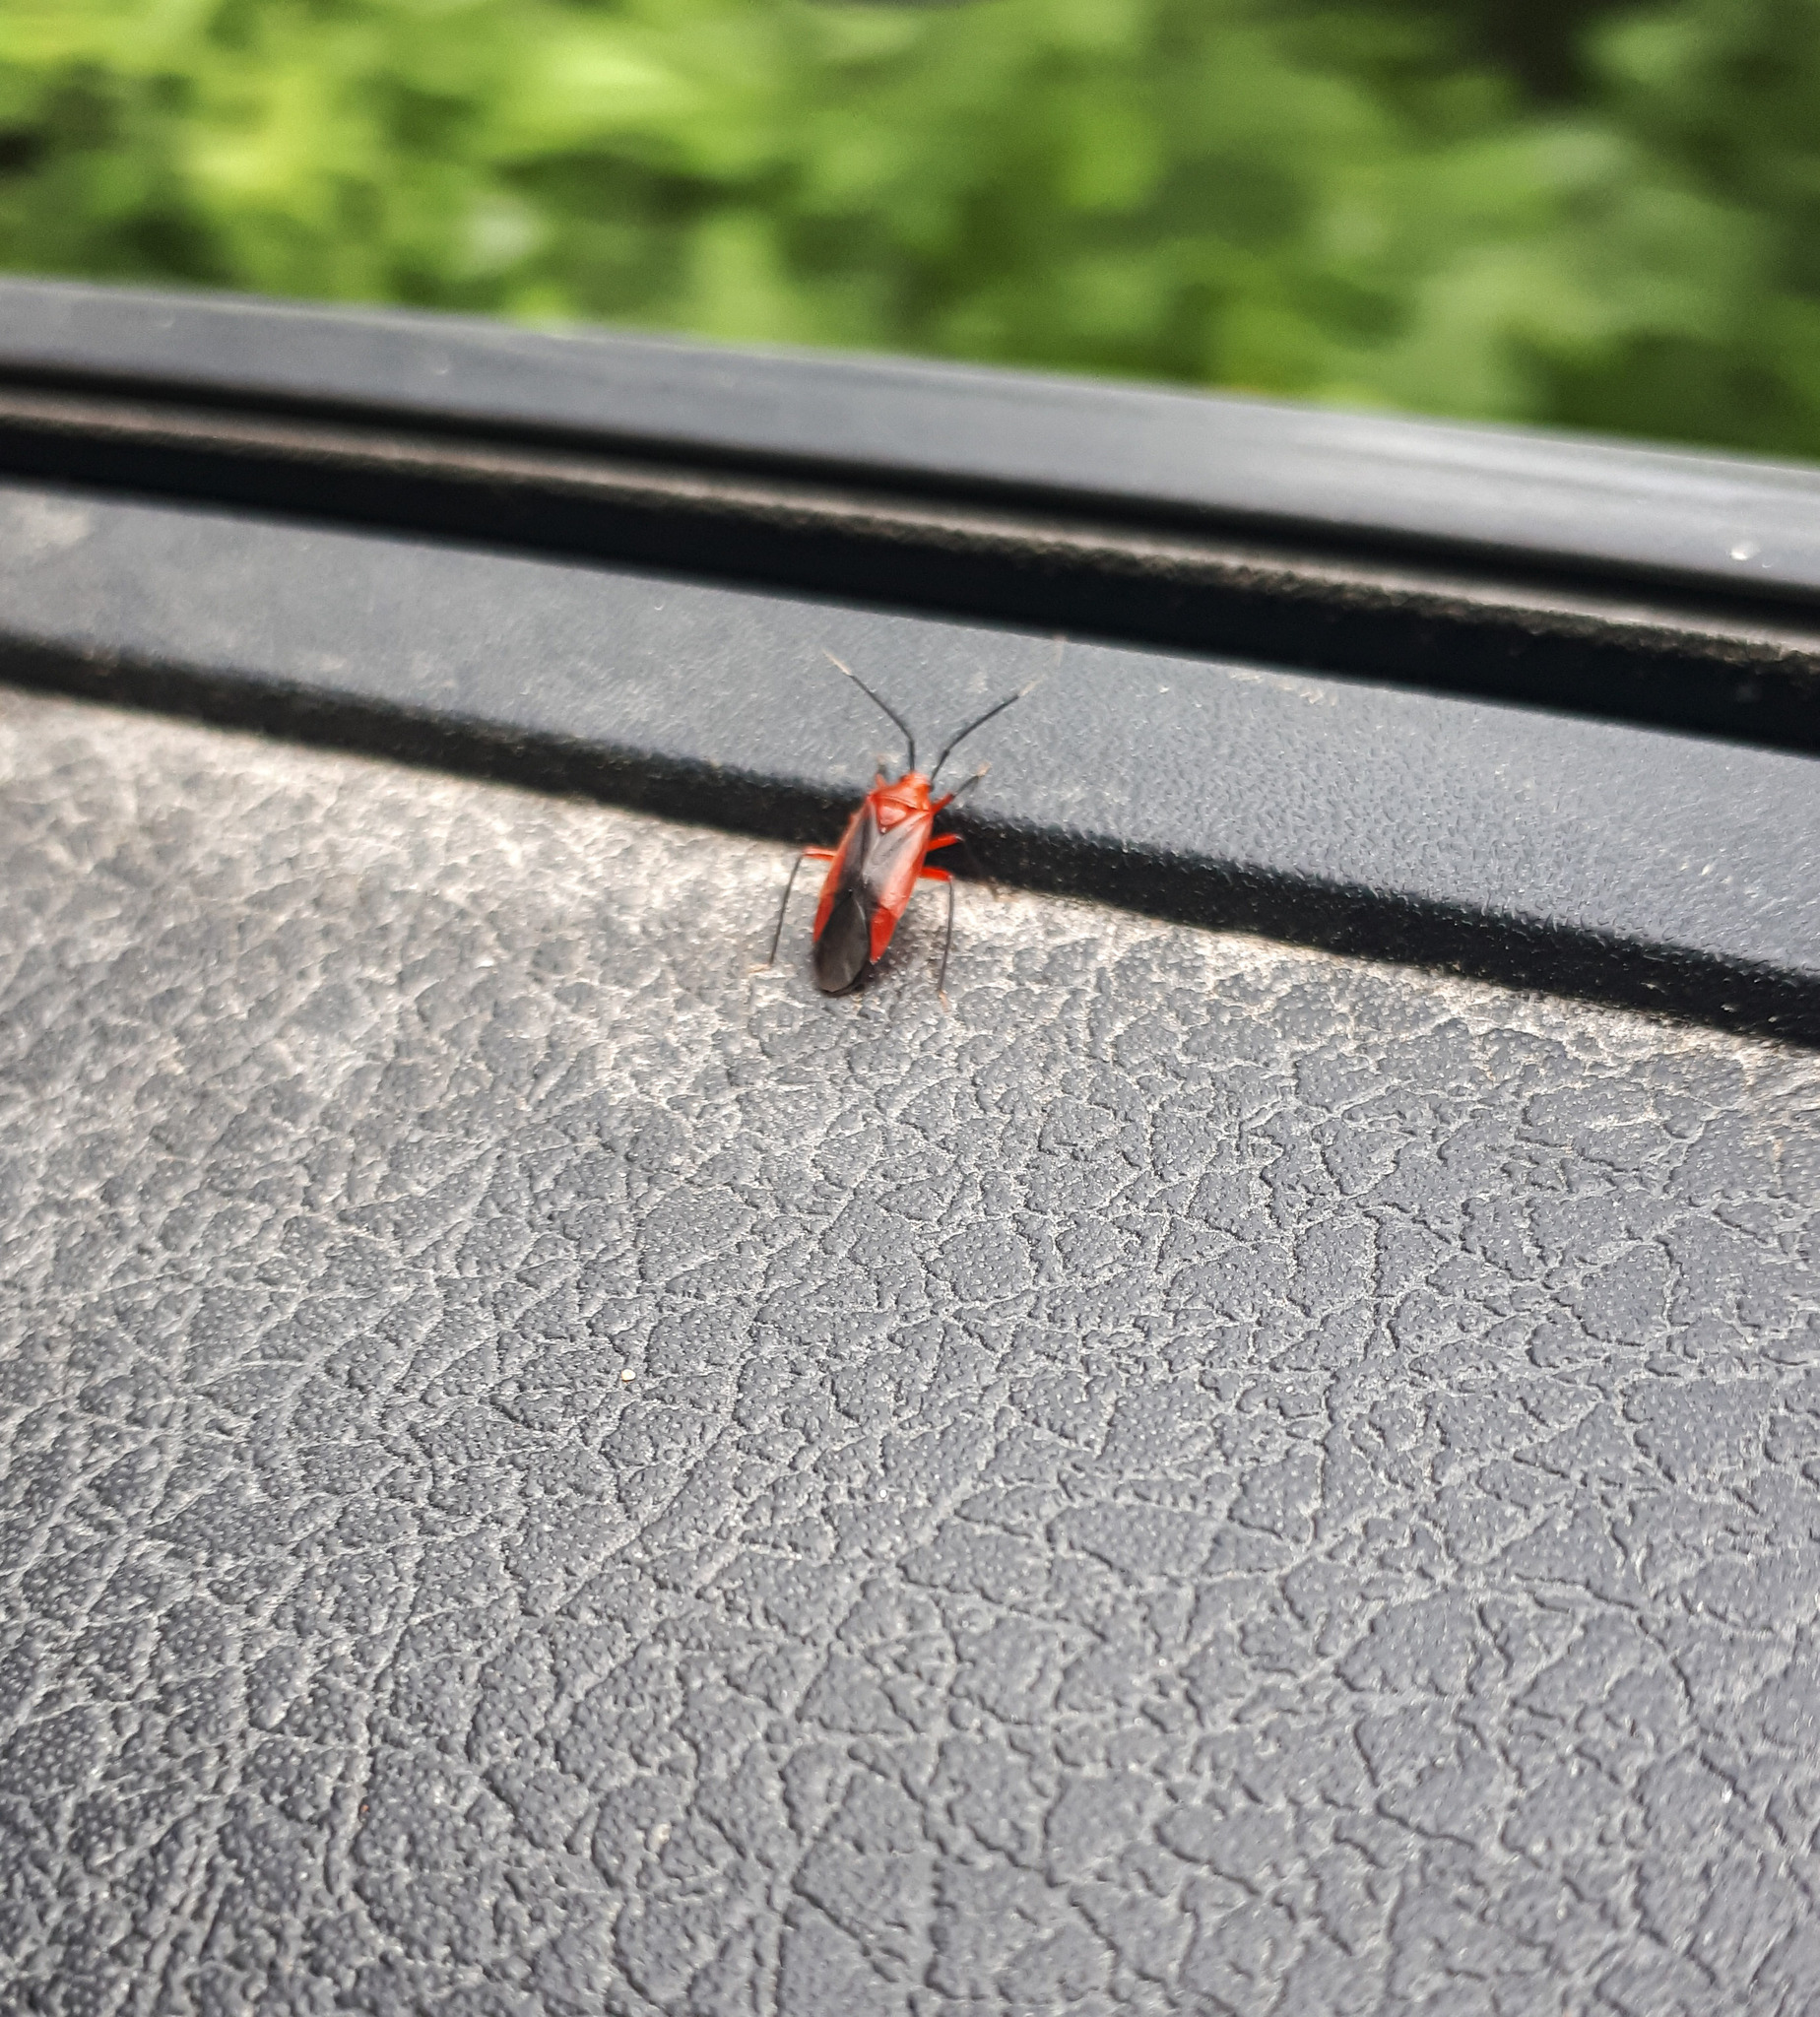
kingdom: Animalia
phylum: Arthropoda
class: Insecta
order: Hemiptera
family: Miridae
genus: Coccobaphes
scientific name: Coccobaphes frontifer
